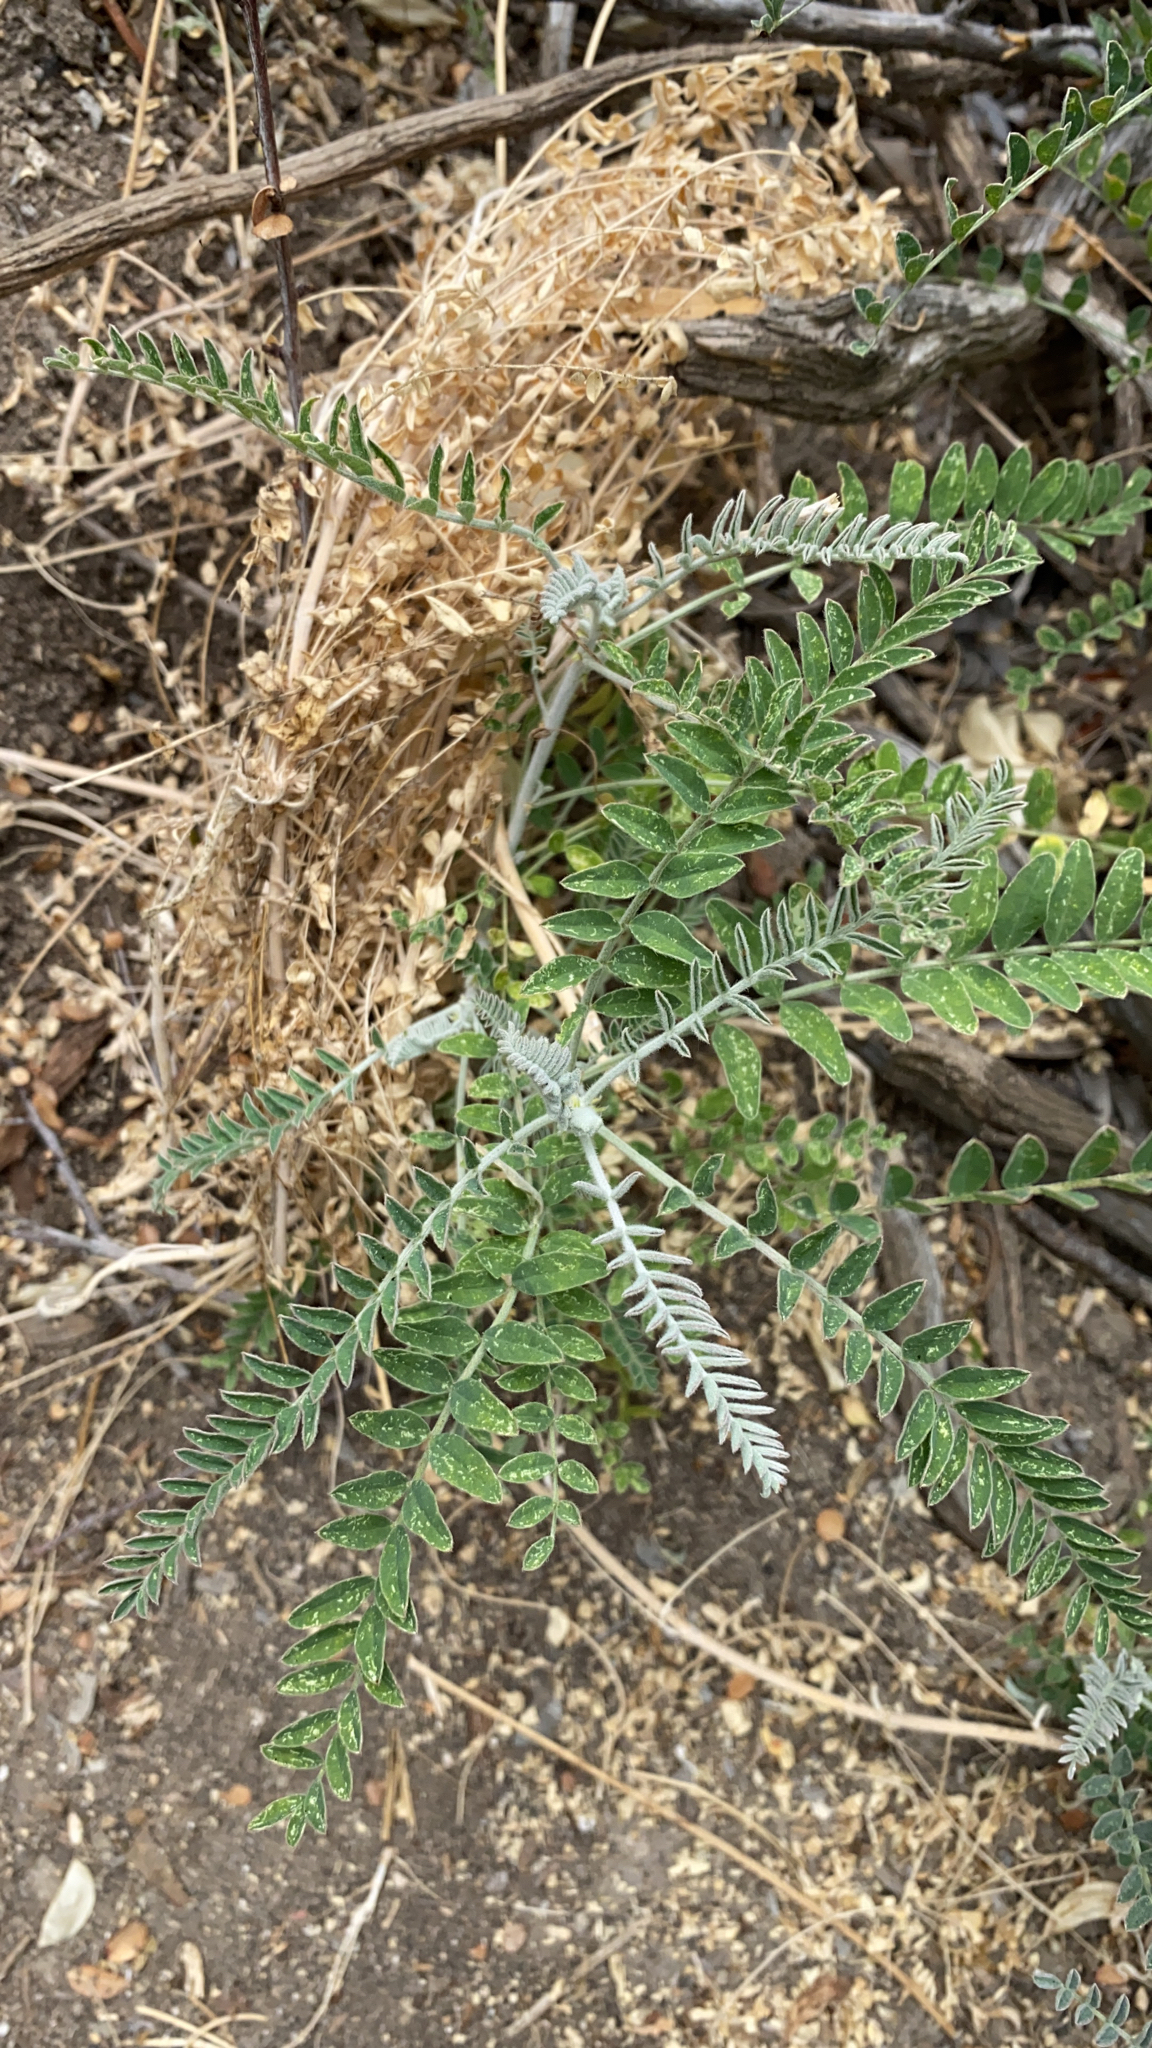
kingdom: Plantae
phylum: Tracheophyta
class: Magnoliopsida
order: Fabales
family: Fabaceae
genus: Astragalus
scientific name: Astragalus trichopodus
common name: Santa barbara milk-vetch
